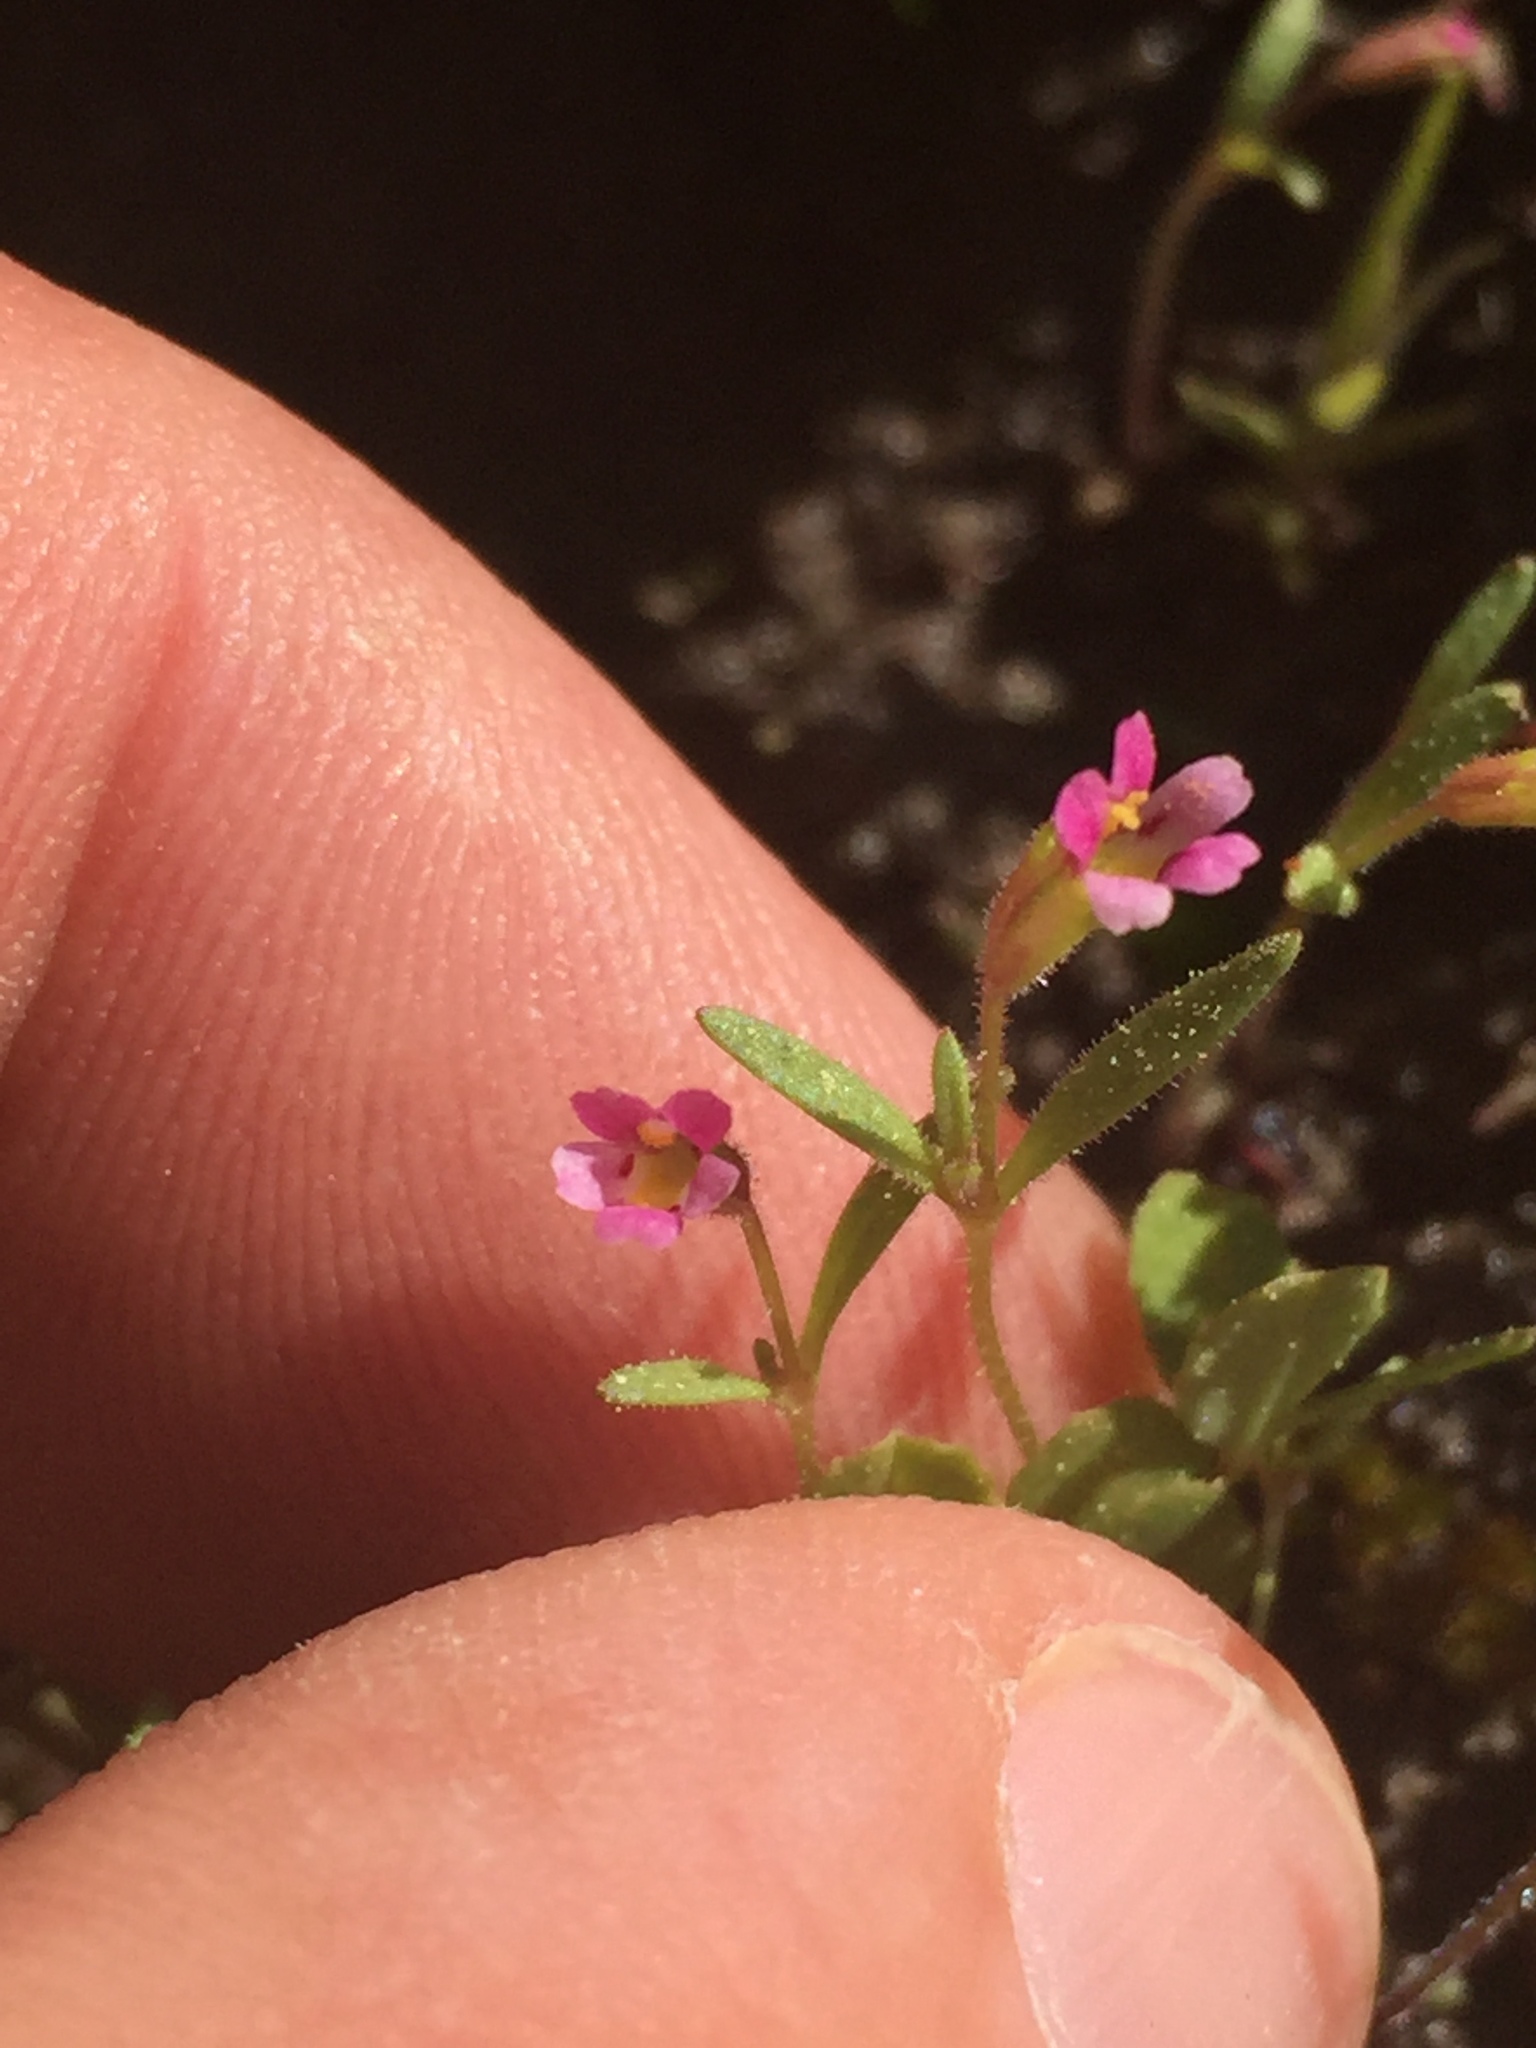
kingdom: Plantae
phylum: Tracheophyta
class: Magnoliopsida
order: Lamiales
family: Phrymaceae
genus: Erythranthe
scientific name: Erythranthe breweri
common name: Brewer's monkeyflower
